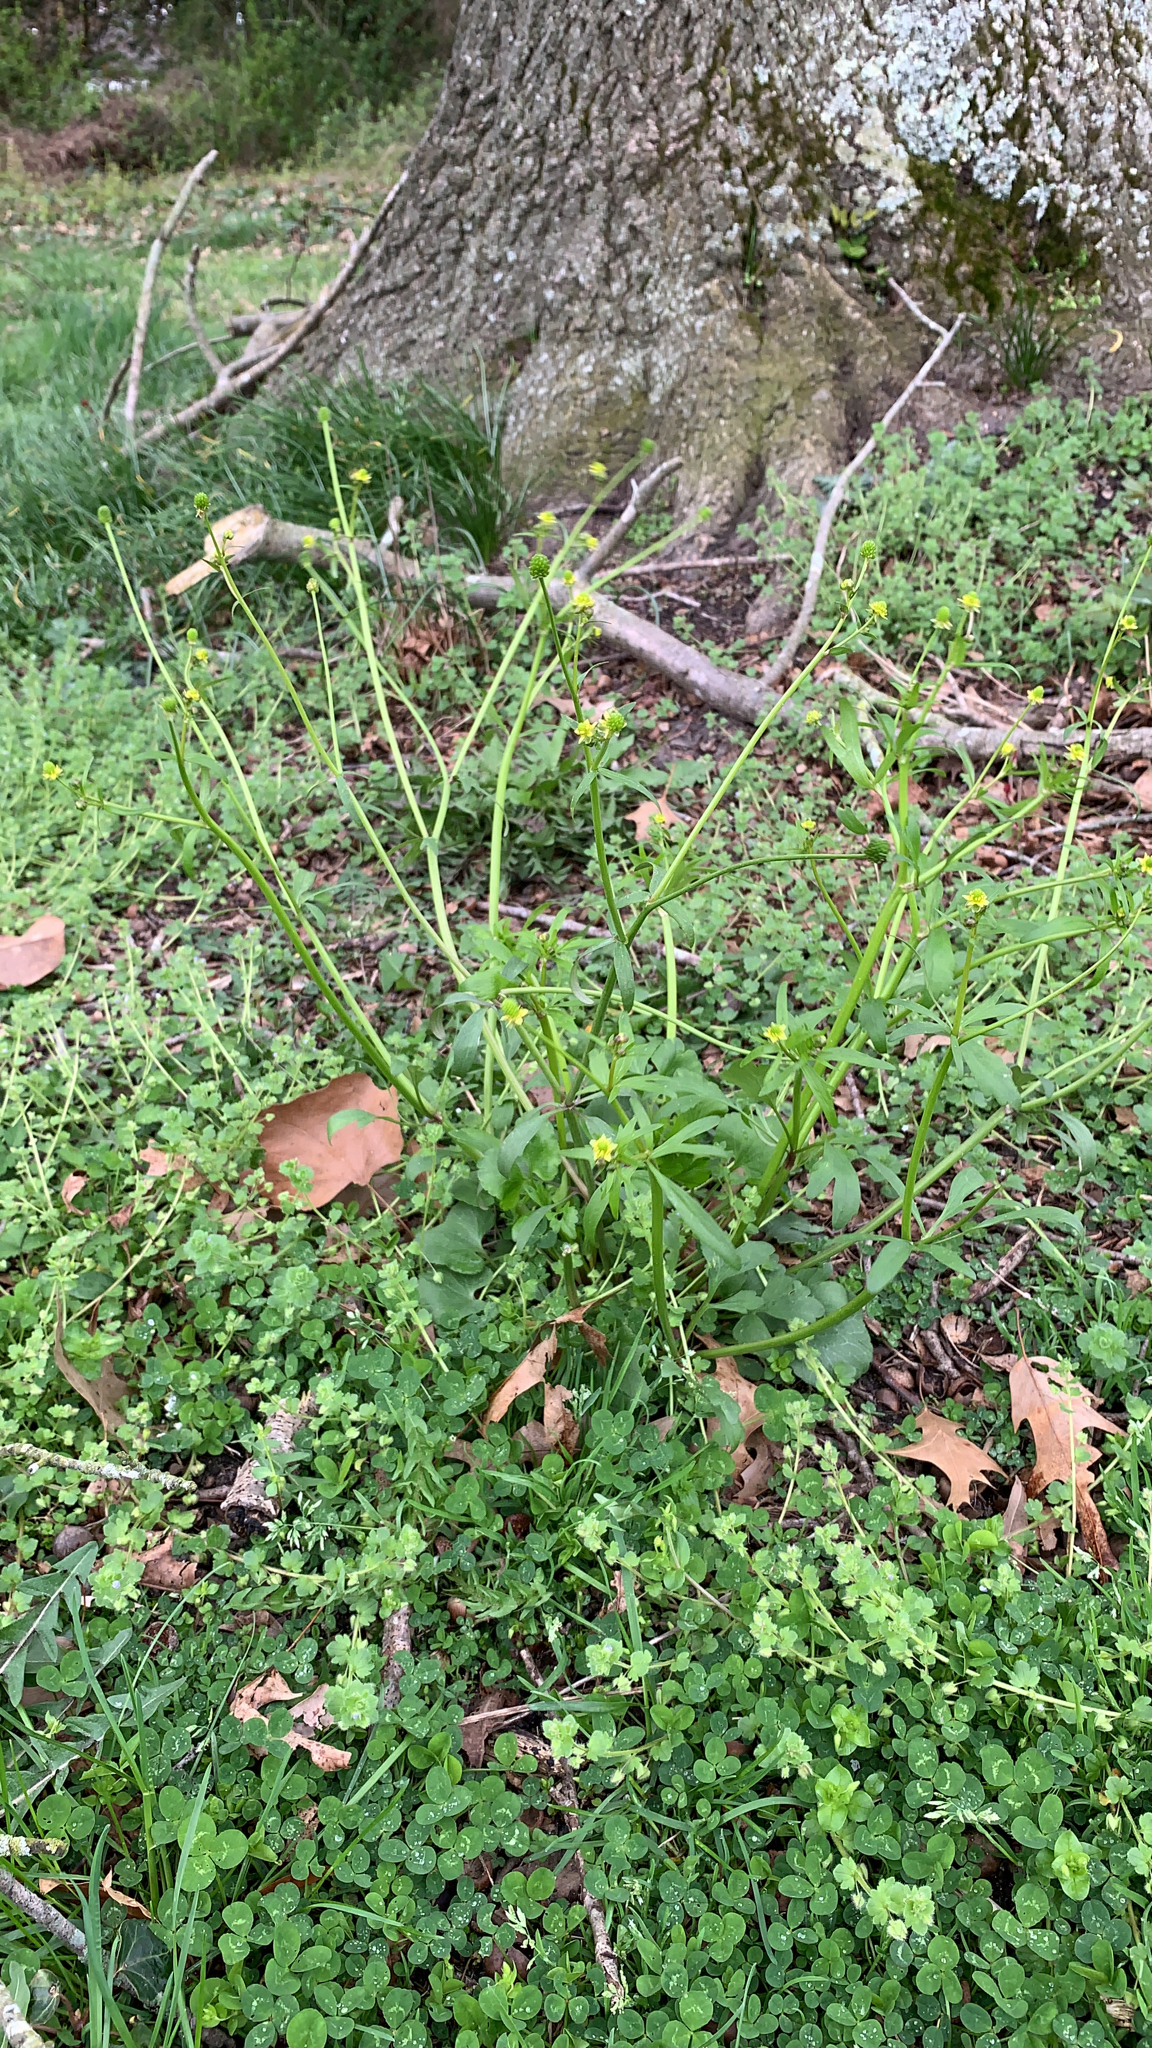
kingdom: Plantae
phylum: Tracheophyta
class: Magnoliopsida
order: Ranunculales
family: Ranunculaceae
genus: Ranunculus
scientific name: Ranunculus abortivus
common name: Early wood buttercup
